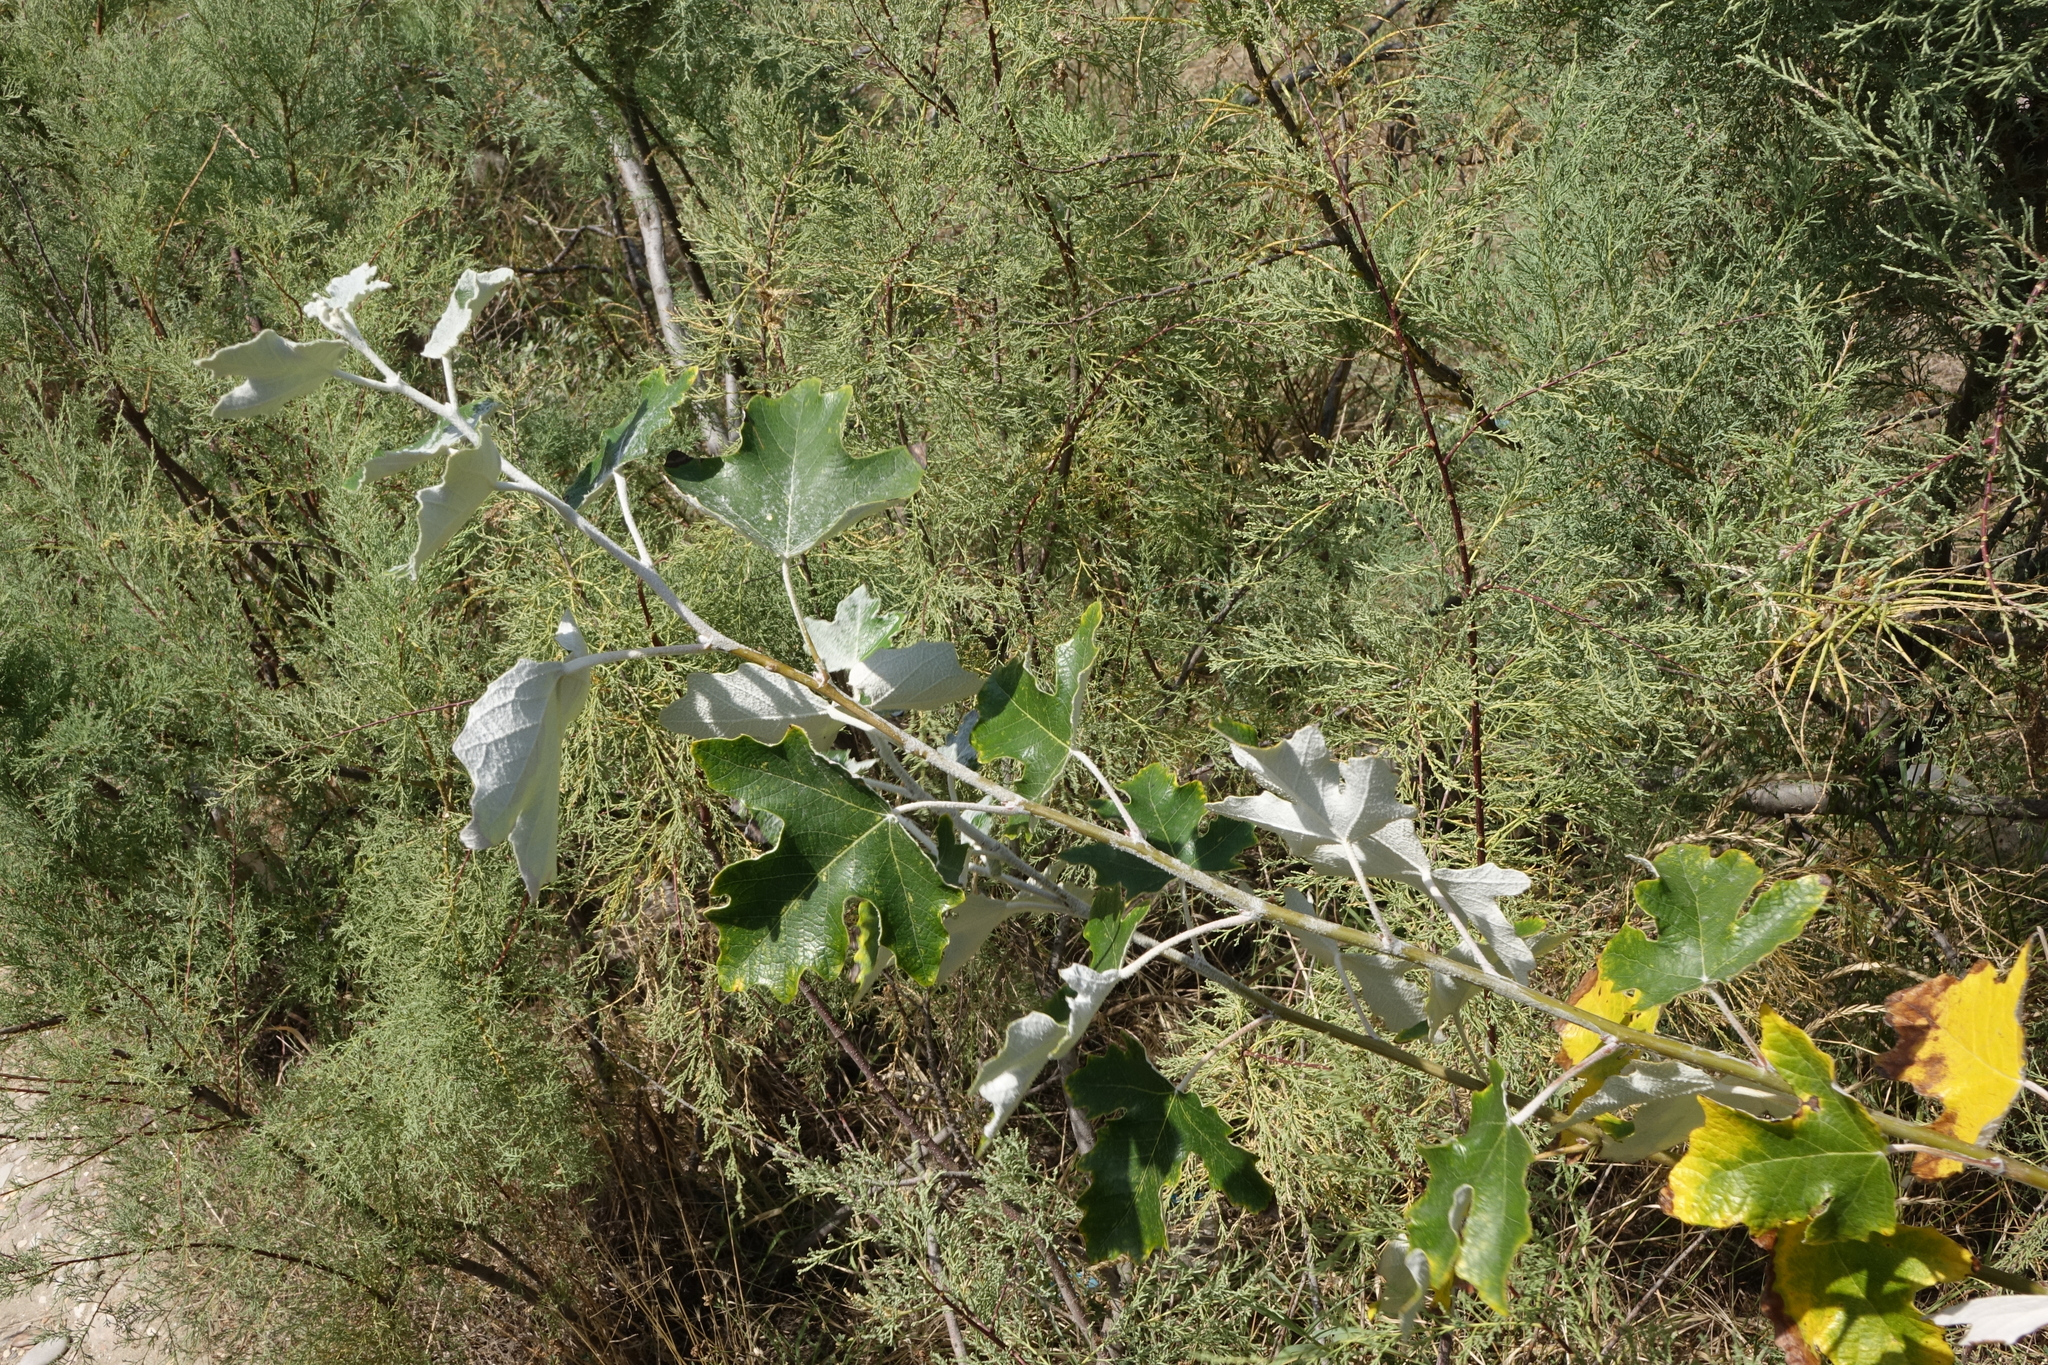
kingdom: Plantae
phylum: Tracheophyta
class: Magnoliopsida
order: Malpighiales
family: Salicaceae
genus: Populus
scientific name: Populus alba
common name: White poplar
